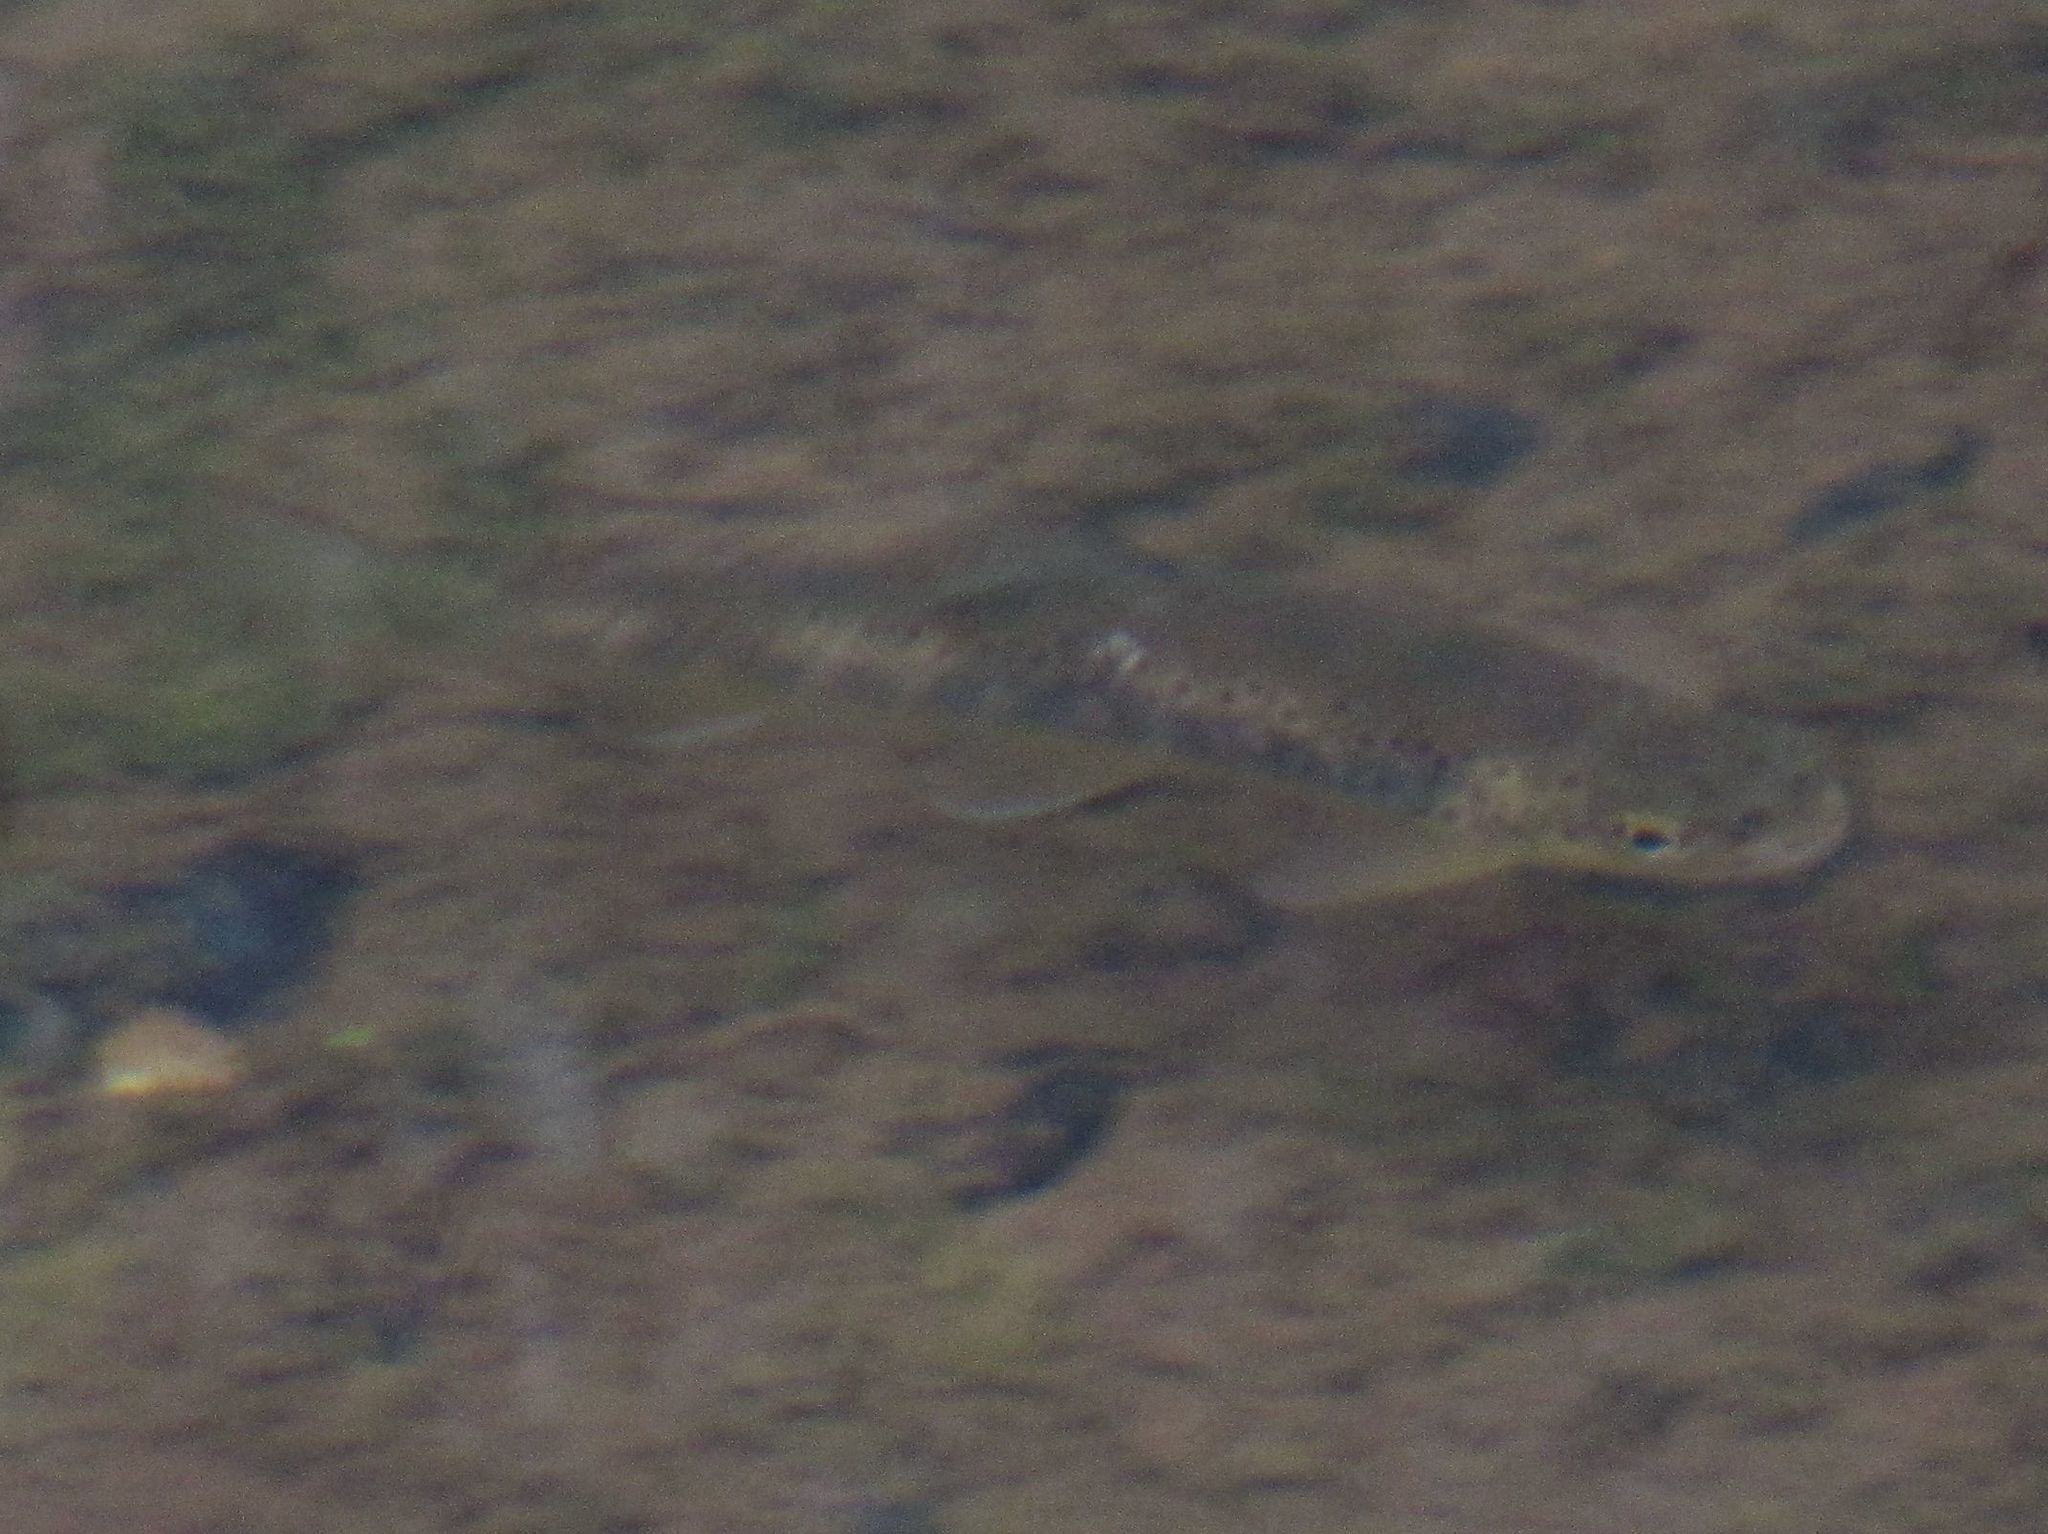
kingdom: Animalia
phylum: Chordata
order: Salmoniformes
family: Salmonidae
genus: Salmo
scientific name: Salmo trutta
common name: Brown trout
